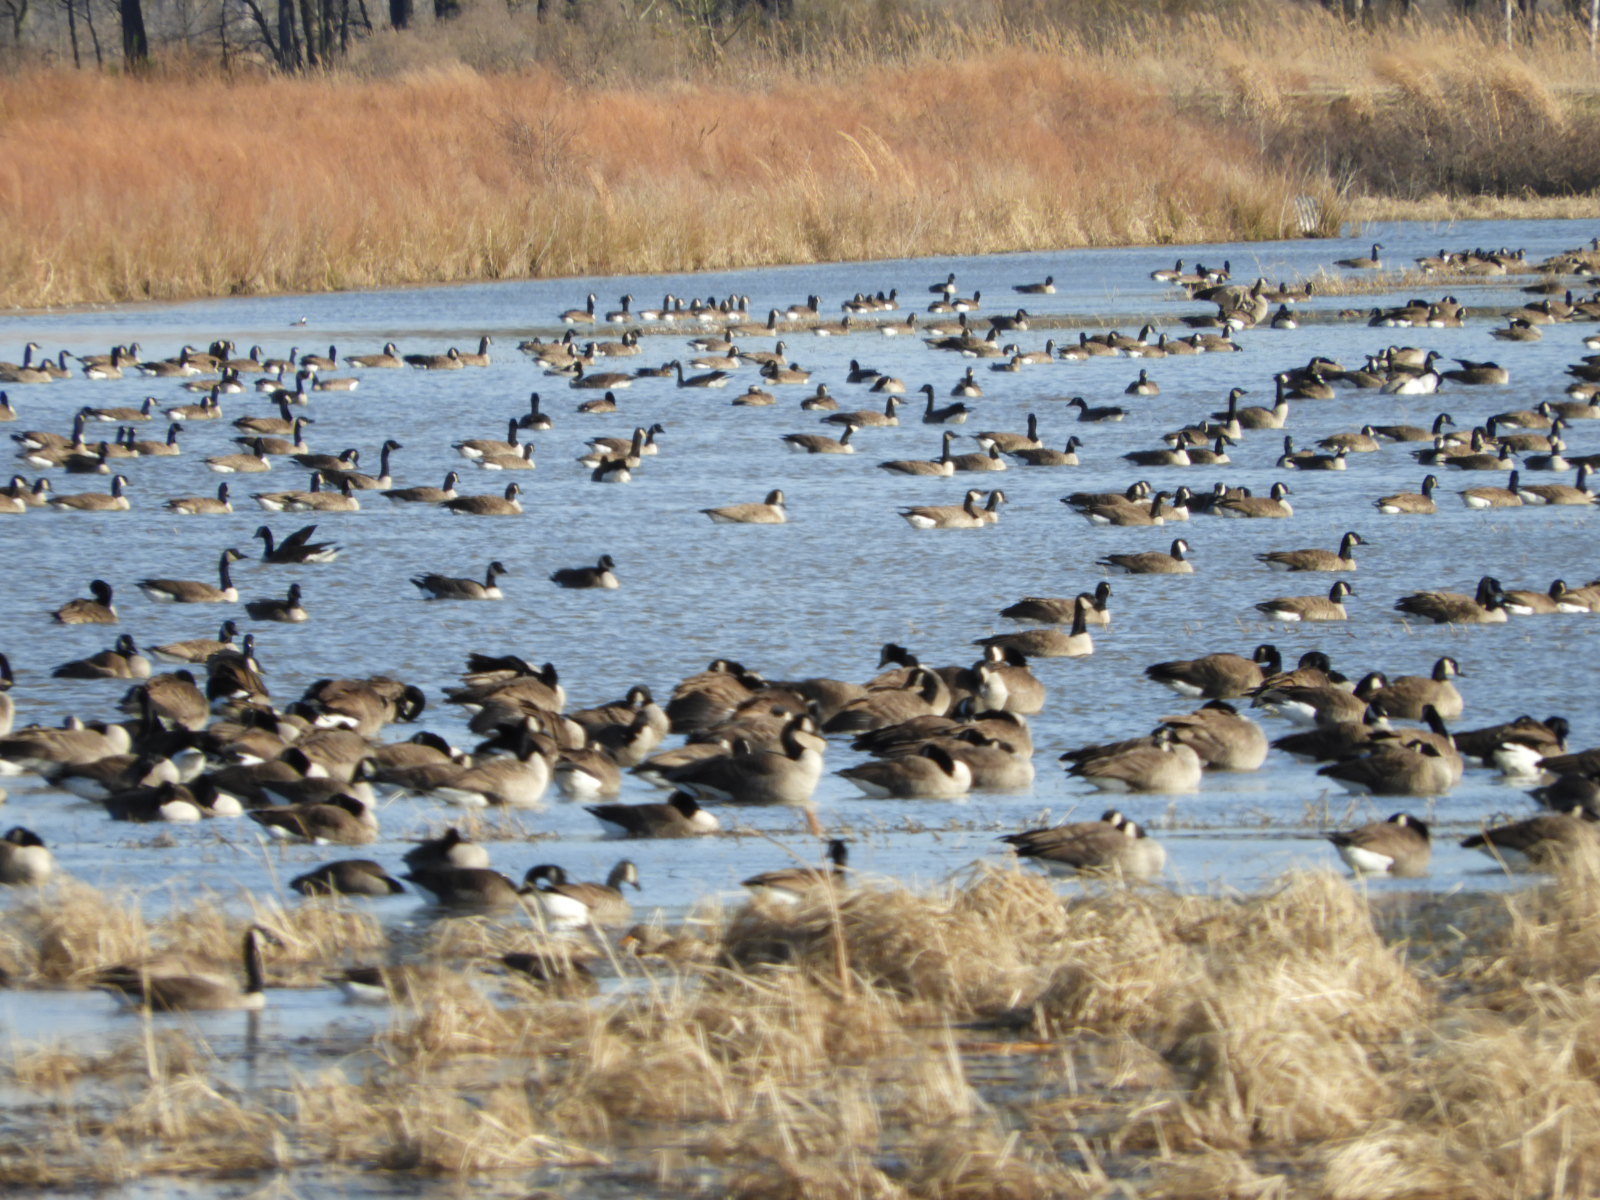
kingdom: Animalia
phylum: Chordata
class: Aves
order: Anseriformes
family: Anatidae
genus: Branta
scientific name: Branta canadensis
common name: Canada goose
